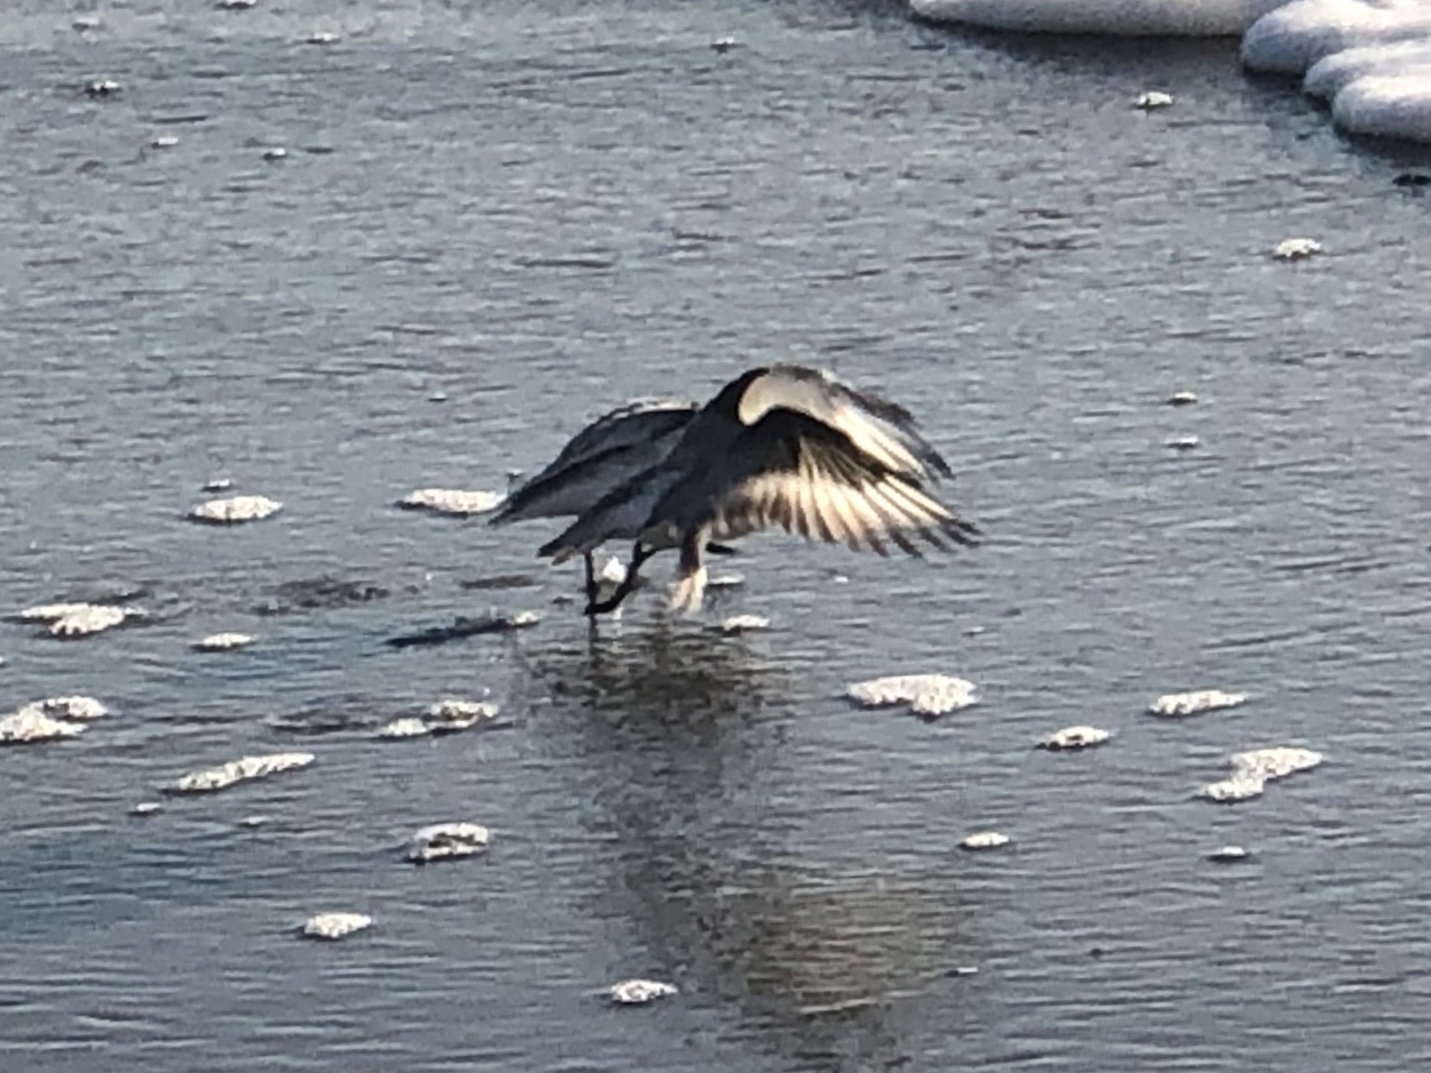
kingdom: Animalia
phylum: Chordata
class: Aves
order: Charadriiformes
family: Scolopacidae
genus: Calidris
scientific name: Calidris alba
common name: Sanderling
